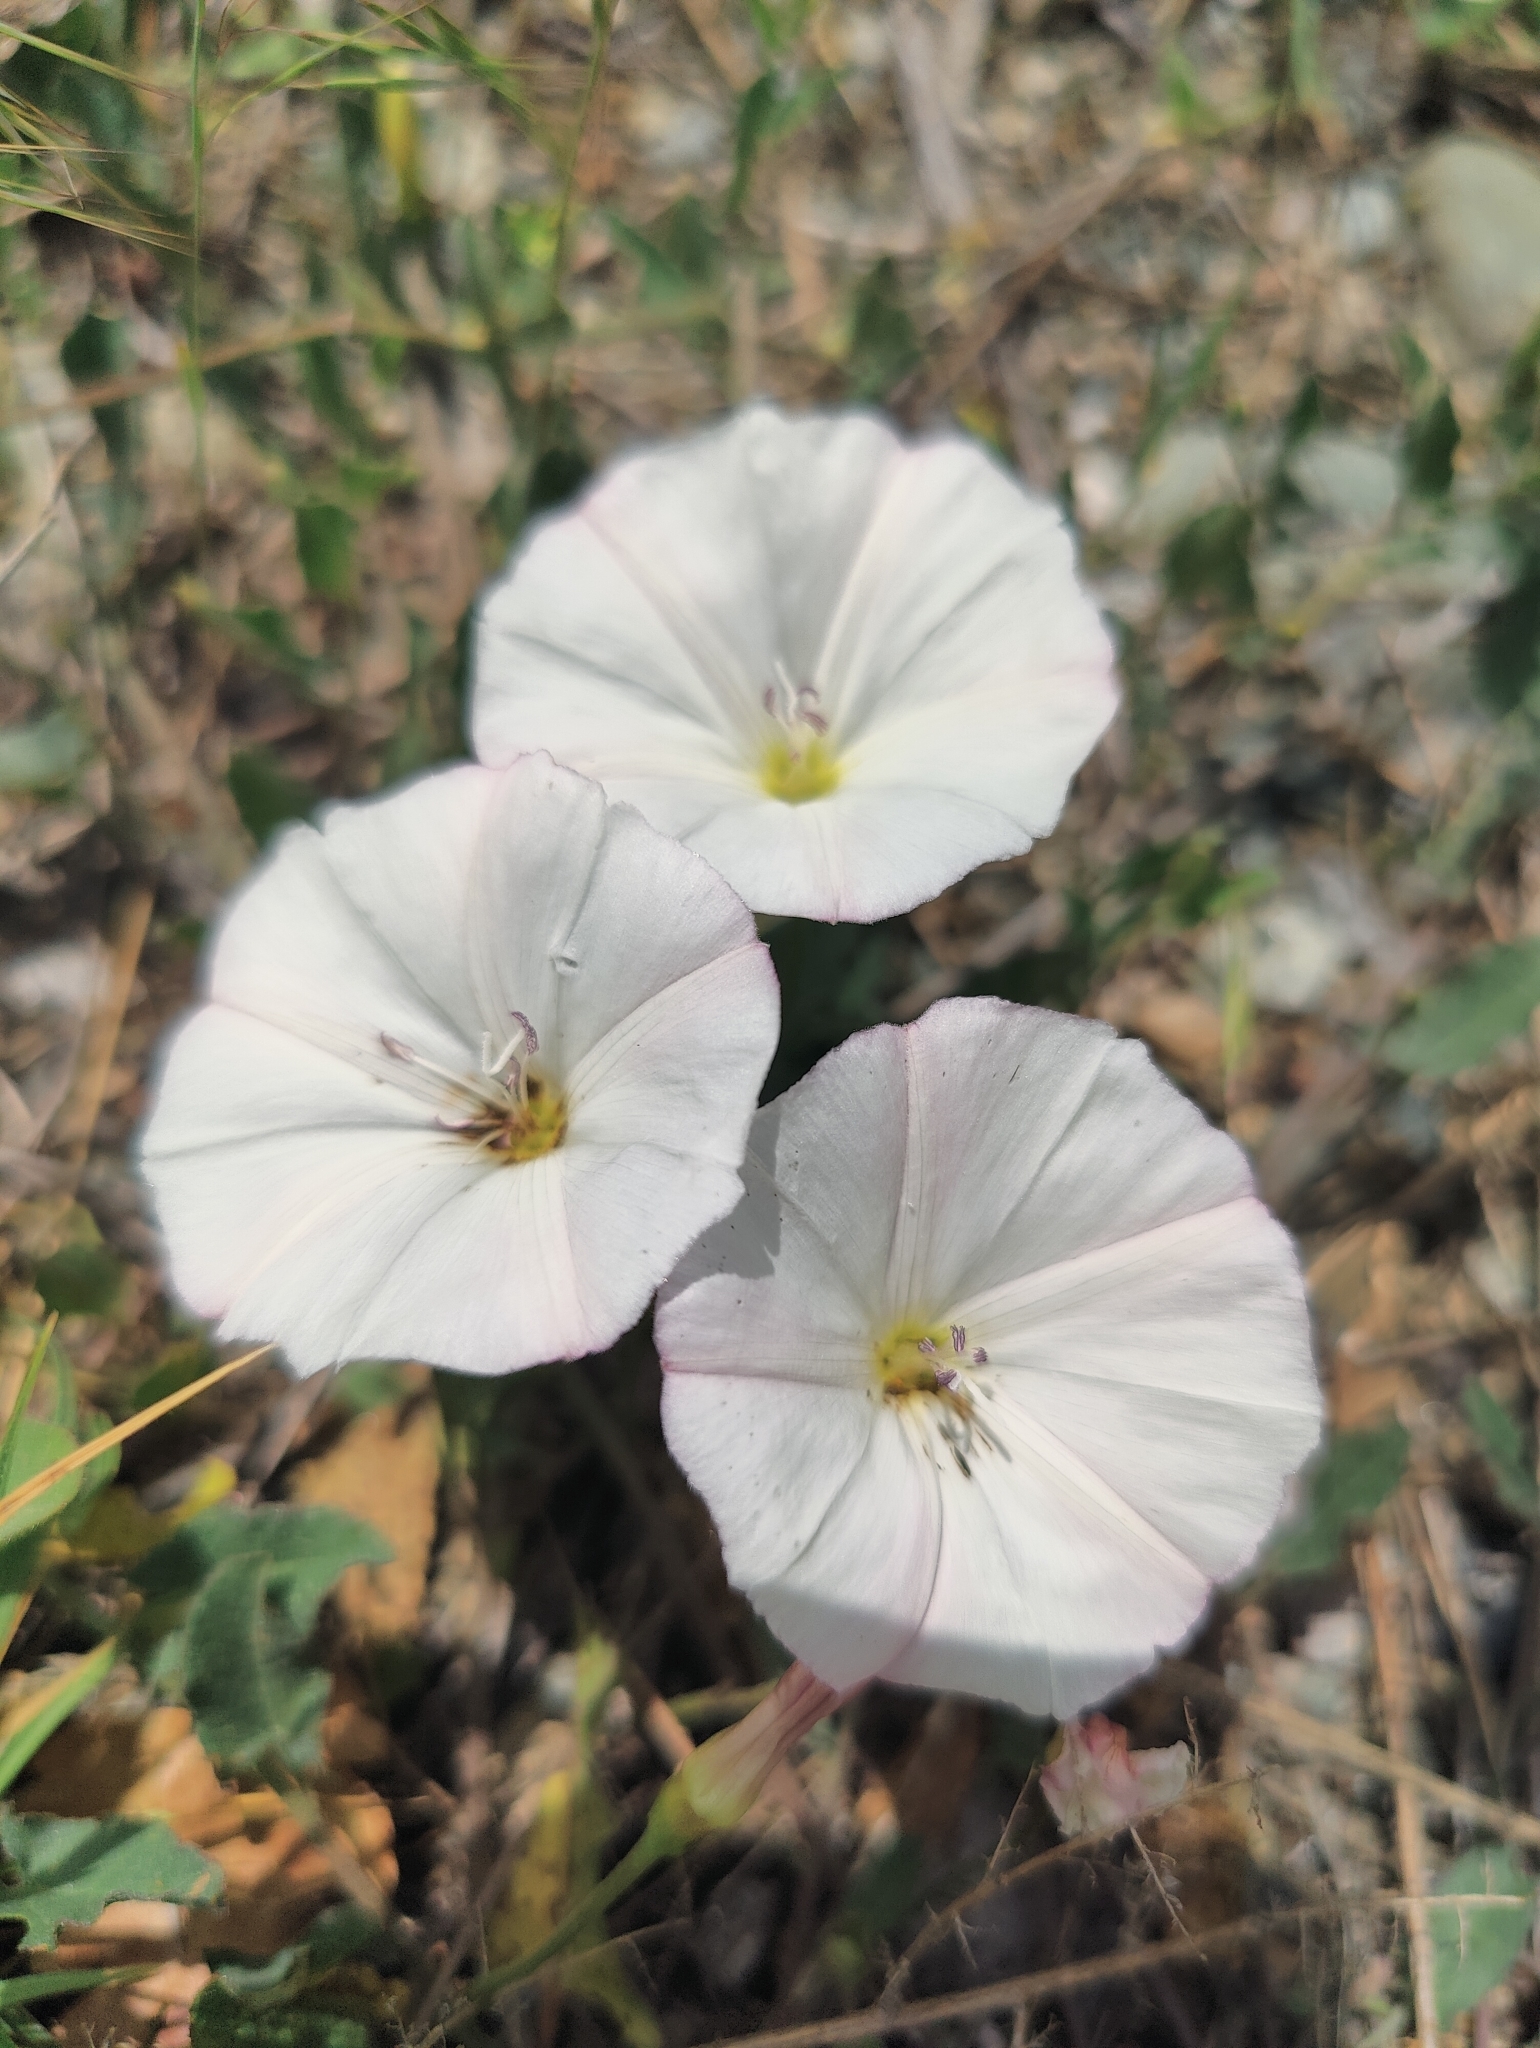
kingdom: Plantae
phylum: Tracheophyta
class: Magnoliopsida
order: Solanales
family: Convolvulaceae
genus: Convolvulus
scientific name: Convolvulus arvensis
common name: Field bindweed
